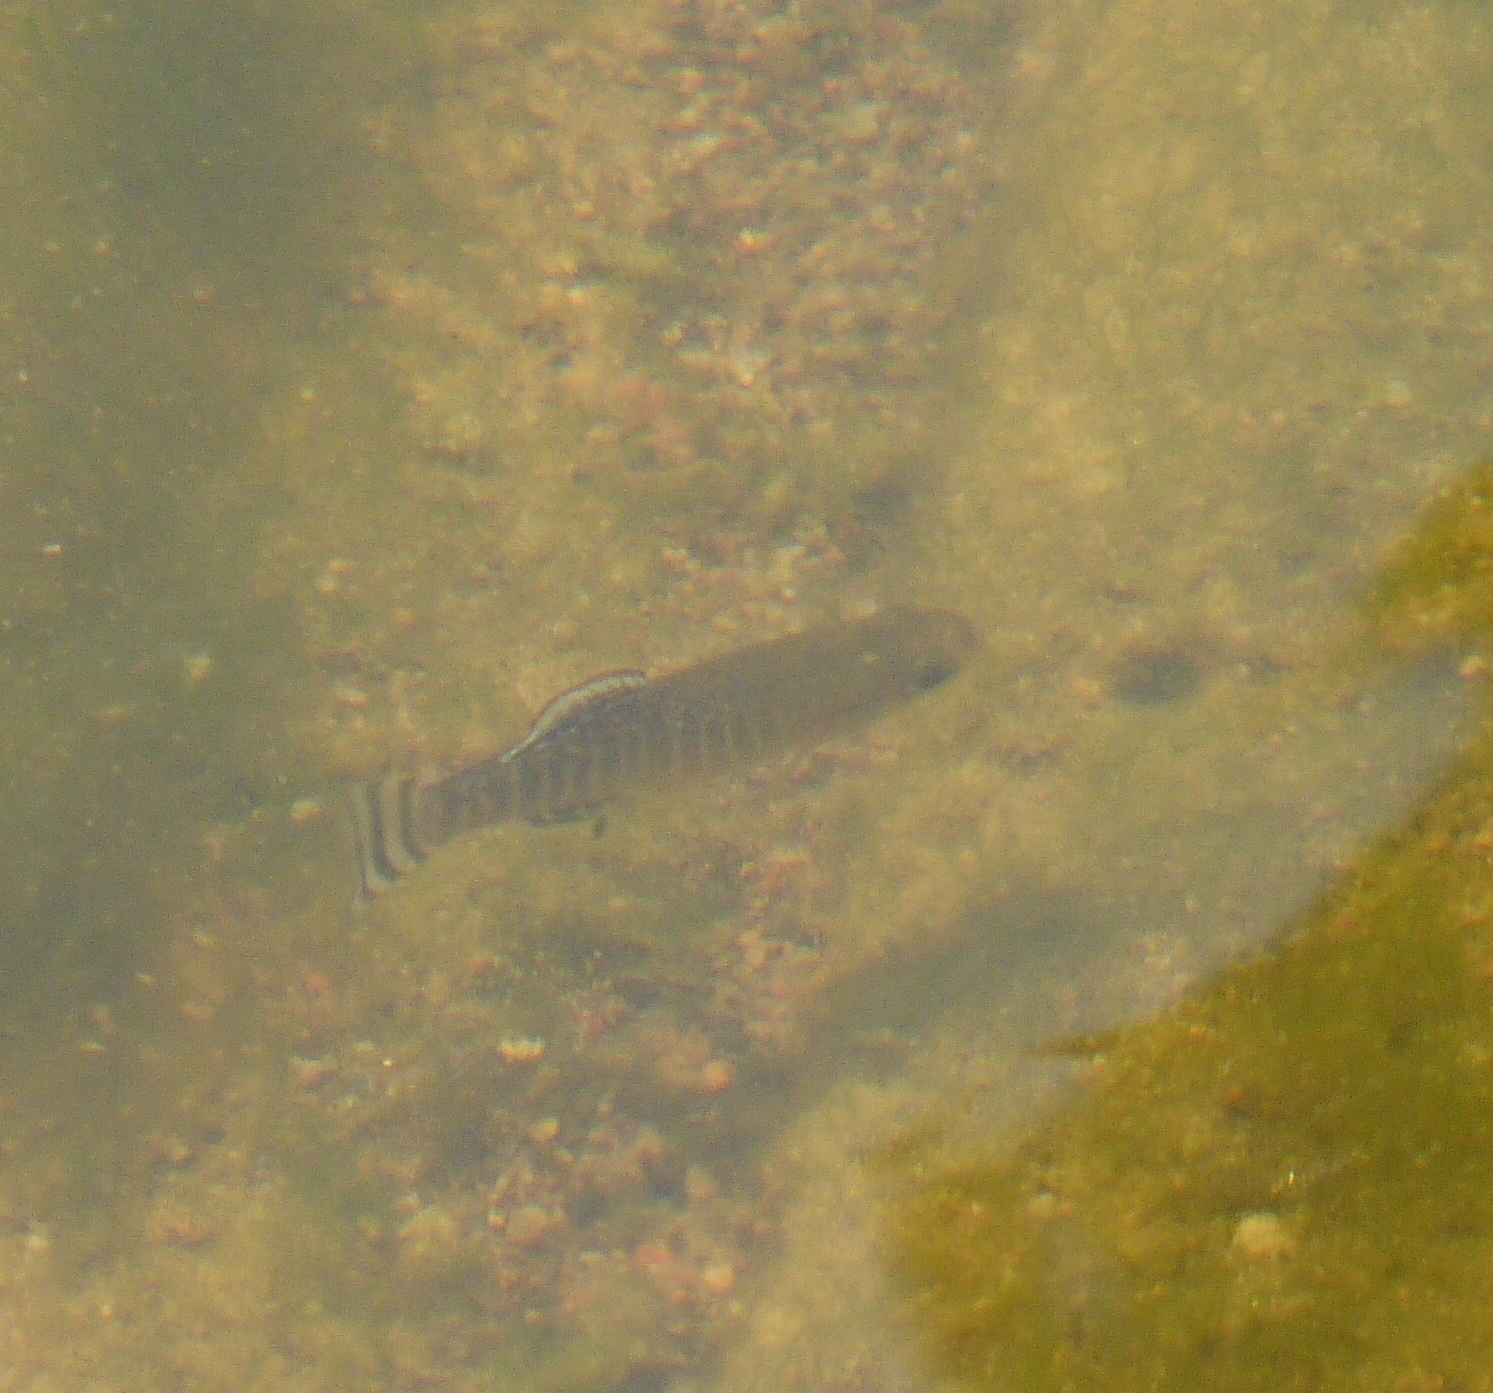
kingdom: Animalia
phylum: Chordata
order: Cyprinodontiformes
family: Aphaniidae
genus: Apricaphanius
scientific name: Apricaphanius iberus
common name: Spanish killifish
